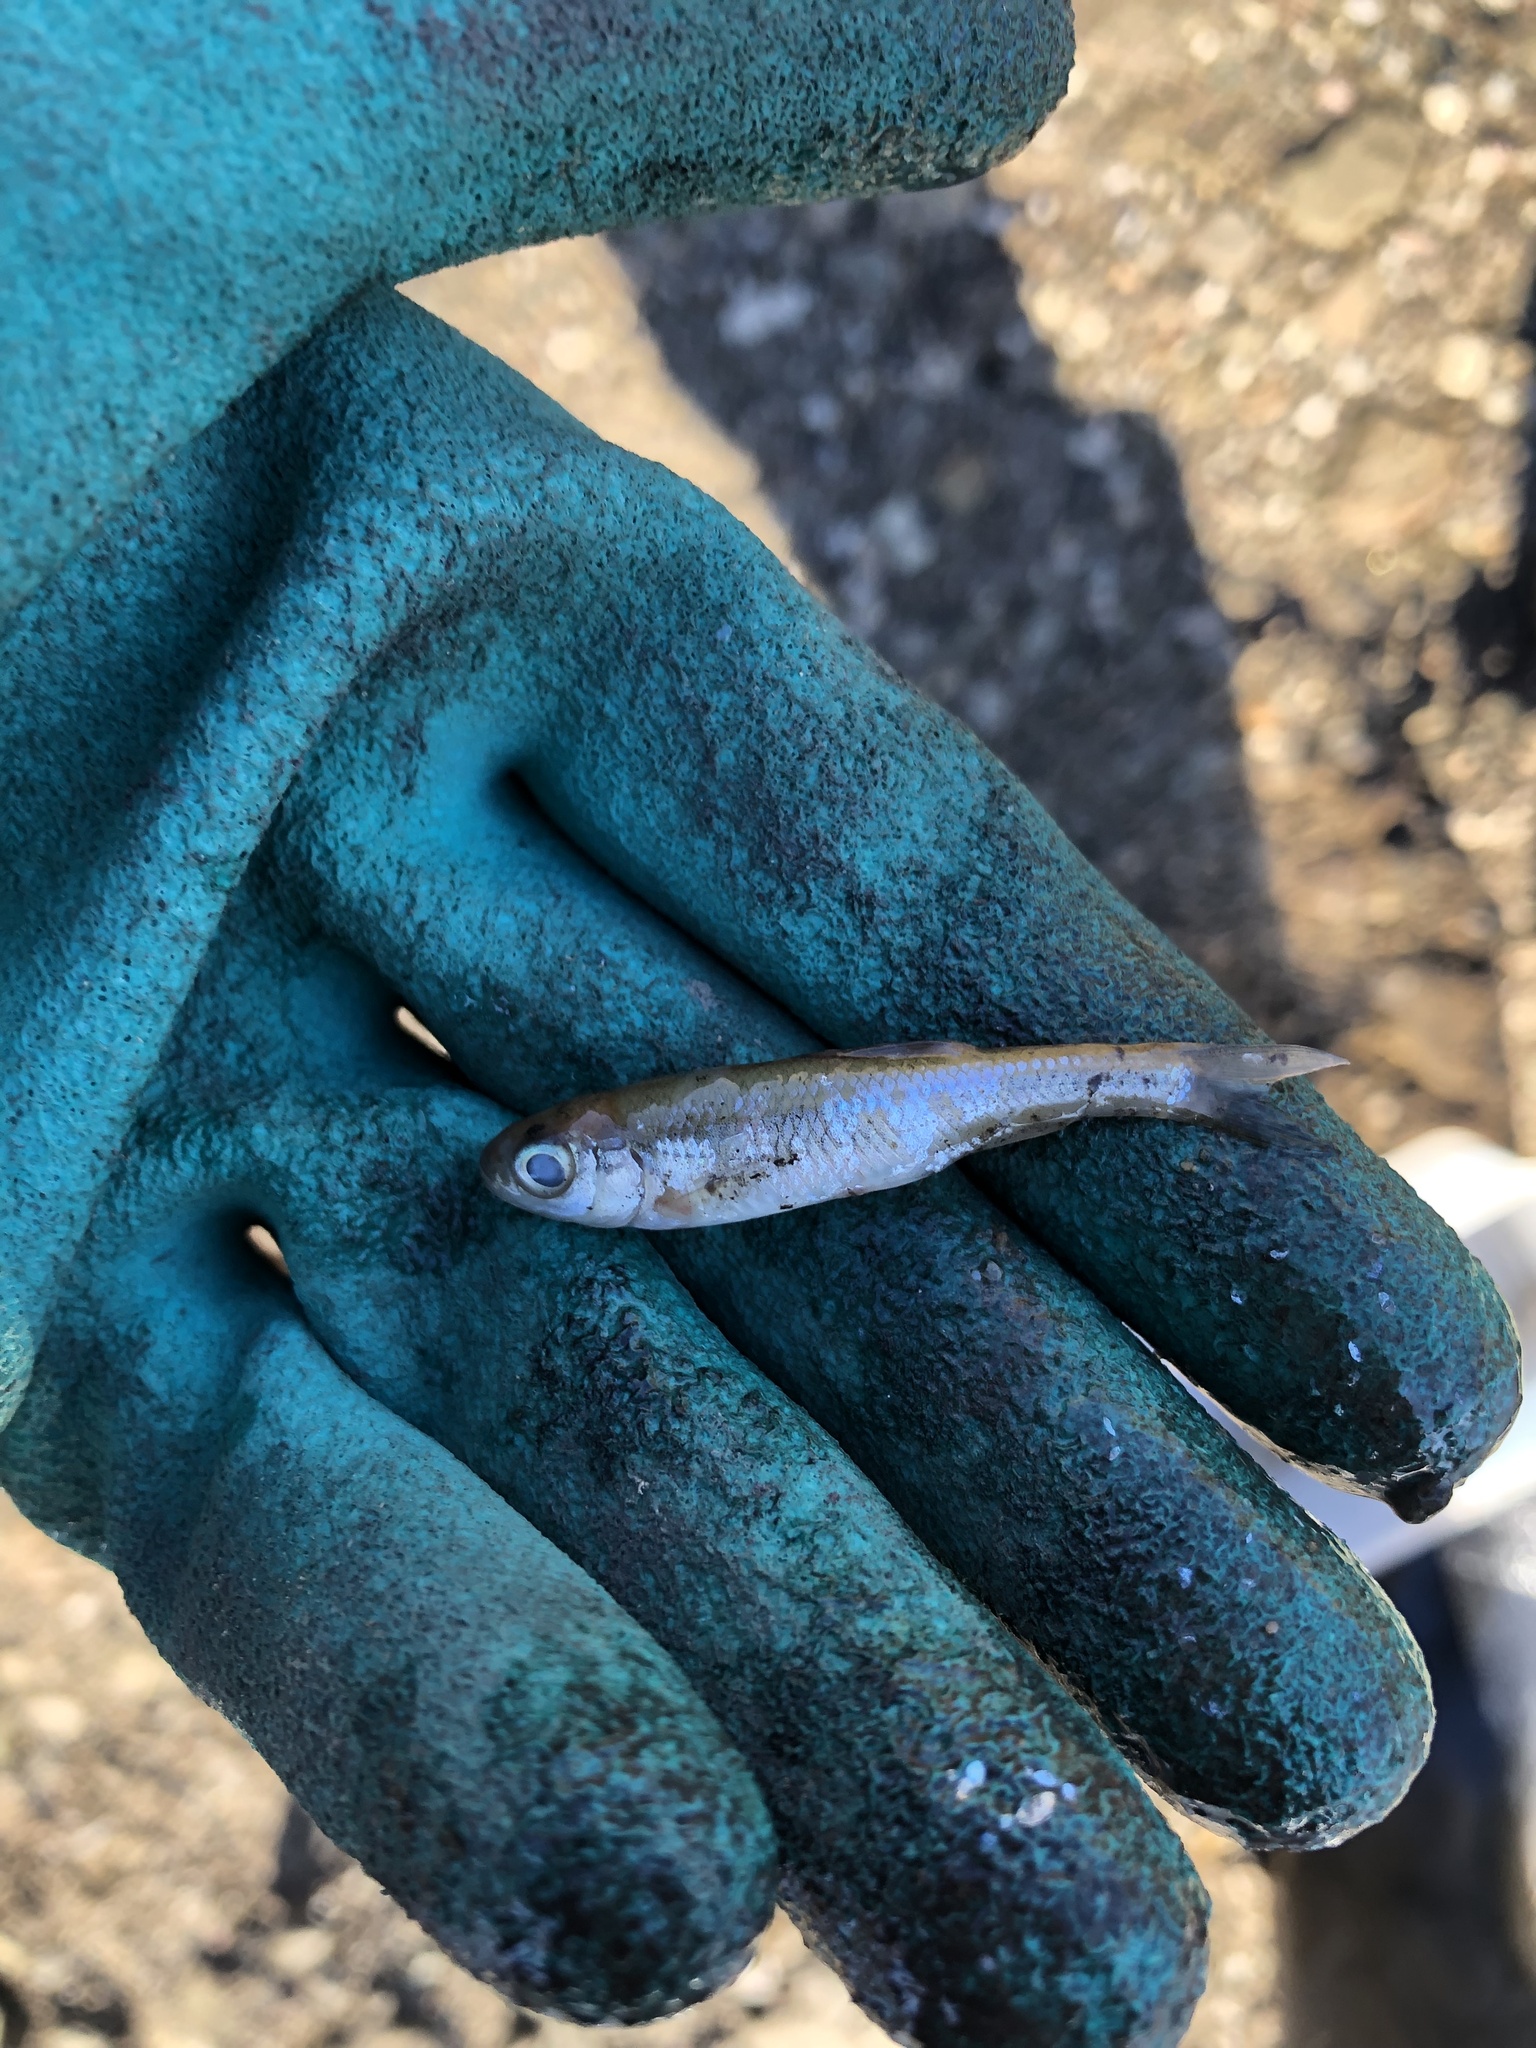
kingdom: Animalia
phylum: Chordata
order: Cypriniformes
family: Cyprinidae
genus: Luxilus
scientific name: Luxilus cornutus
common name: Common shiner
